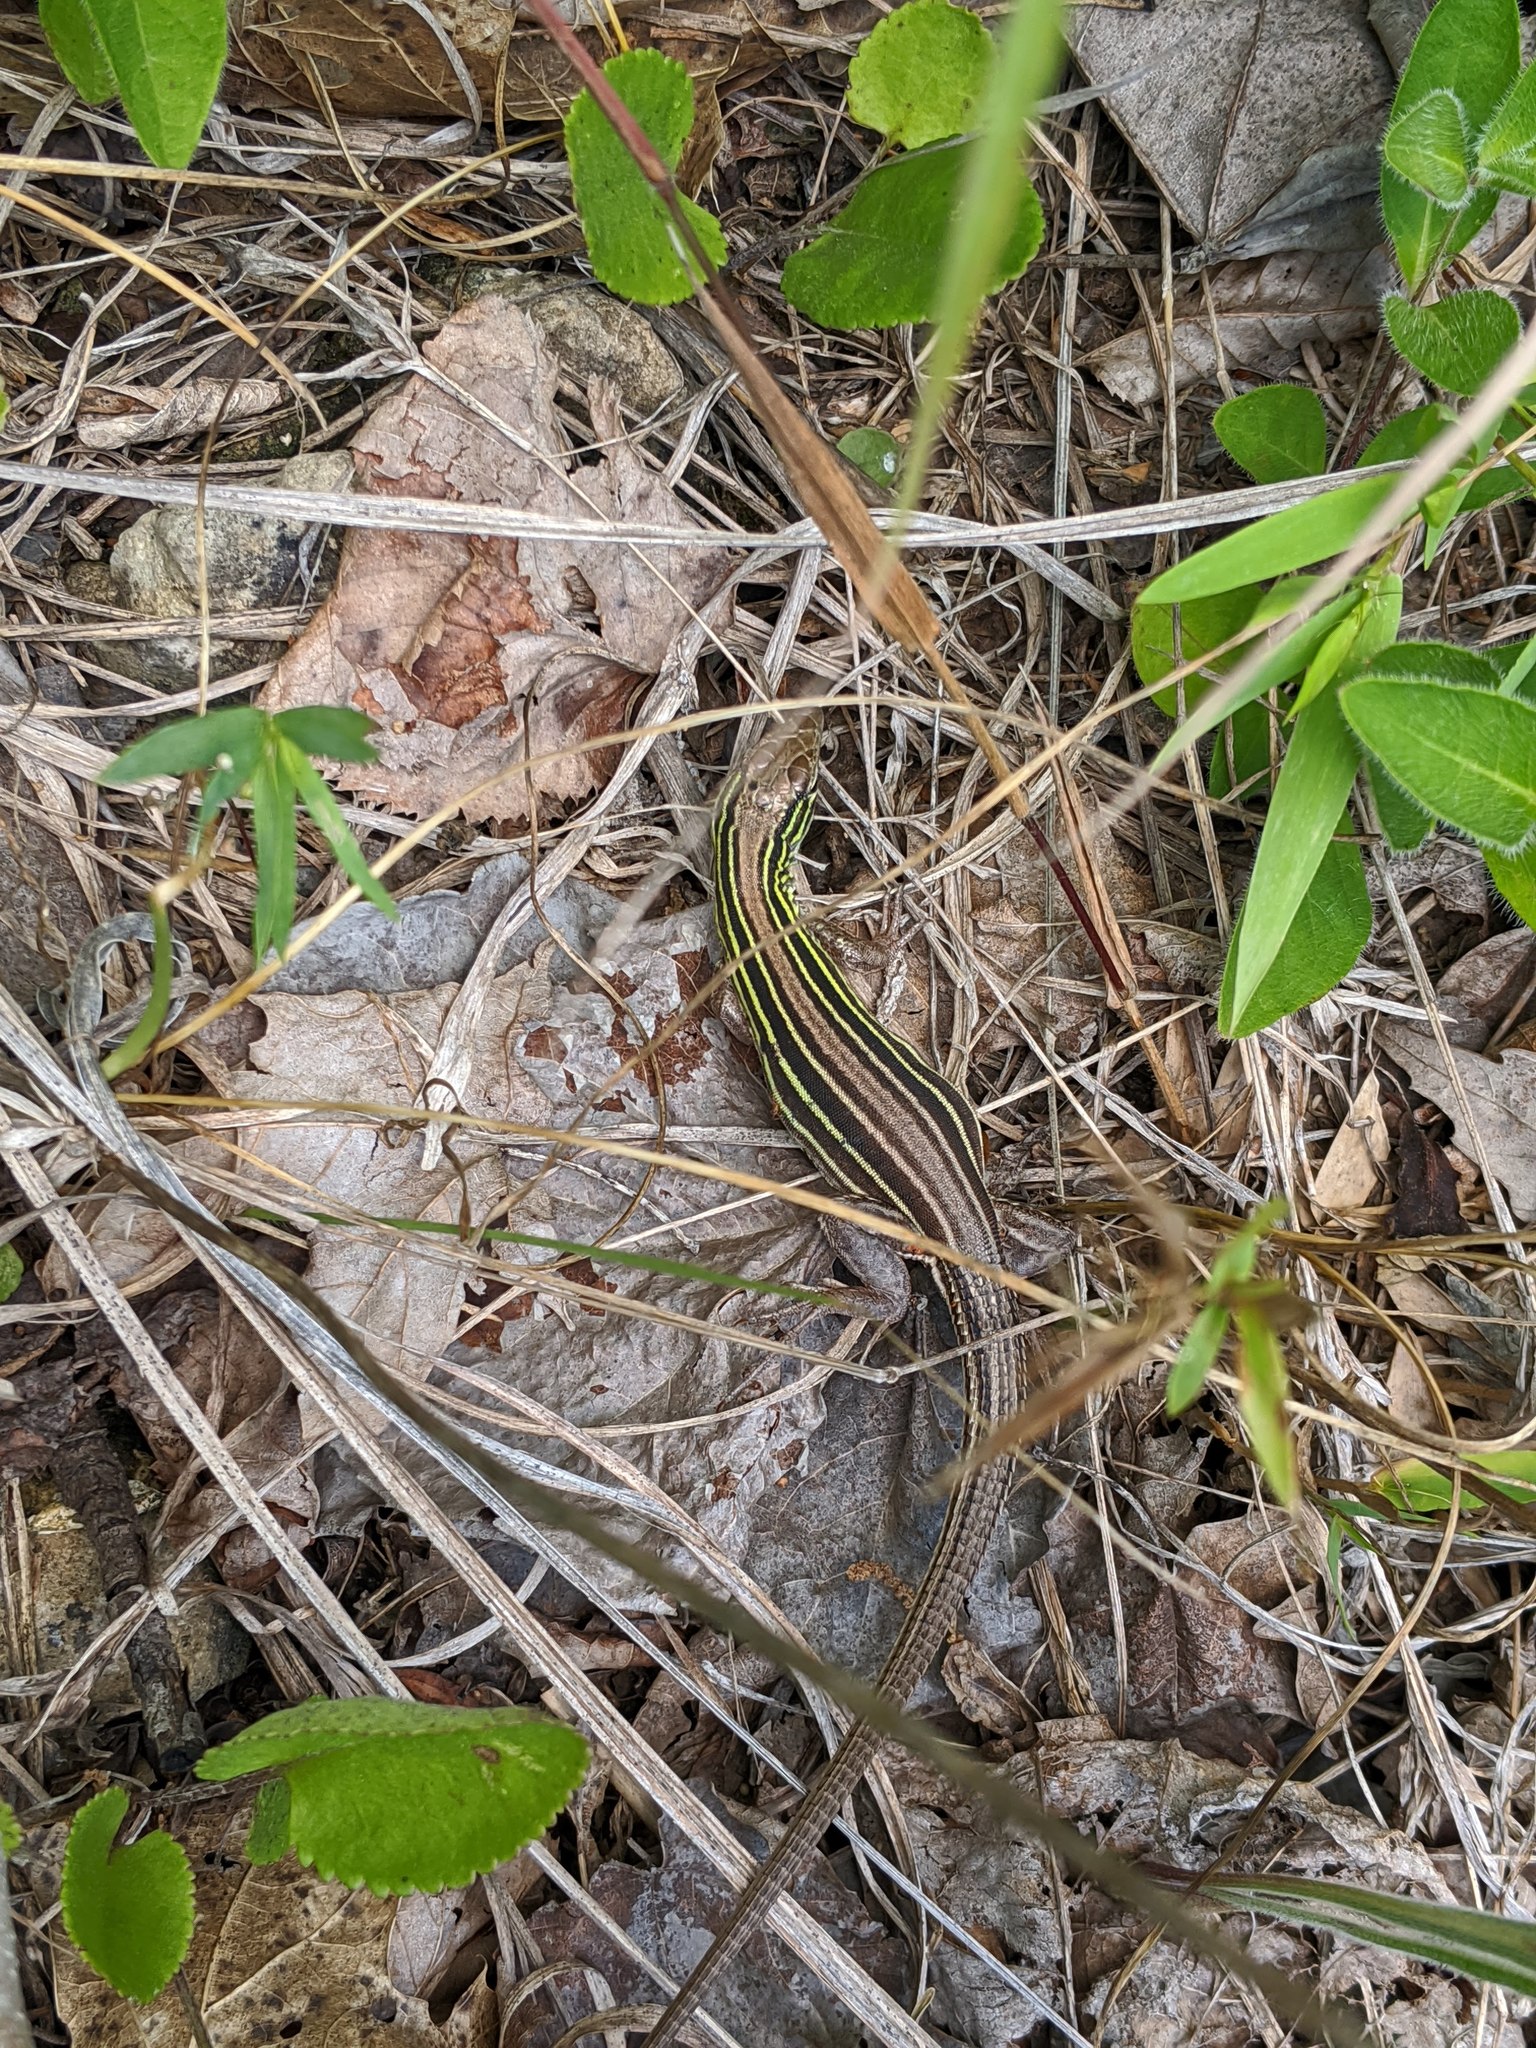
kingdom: Animalia
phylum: Chordata
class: Squamata
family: Teiidae
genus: Aspidoscelis
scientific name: Aspidoscelis sexlineatus
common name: Six-lined racerunner
